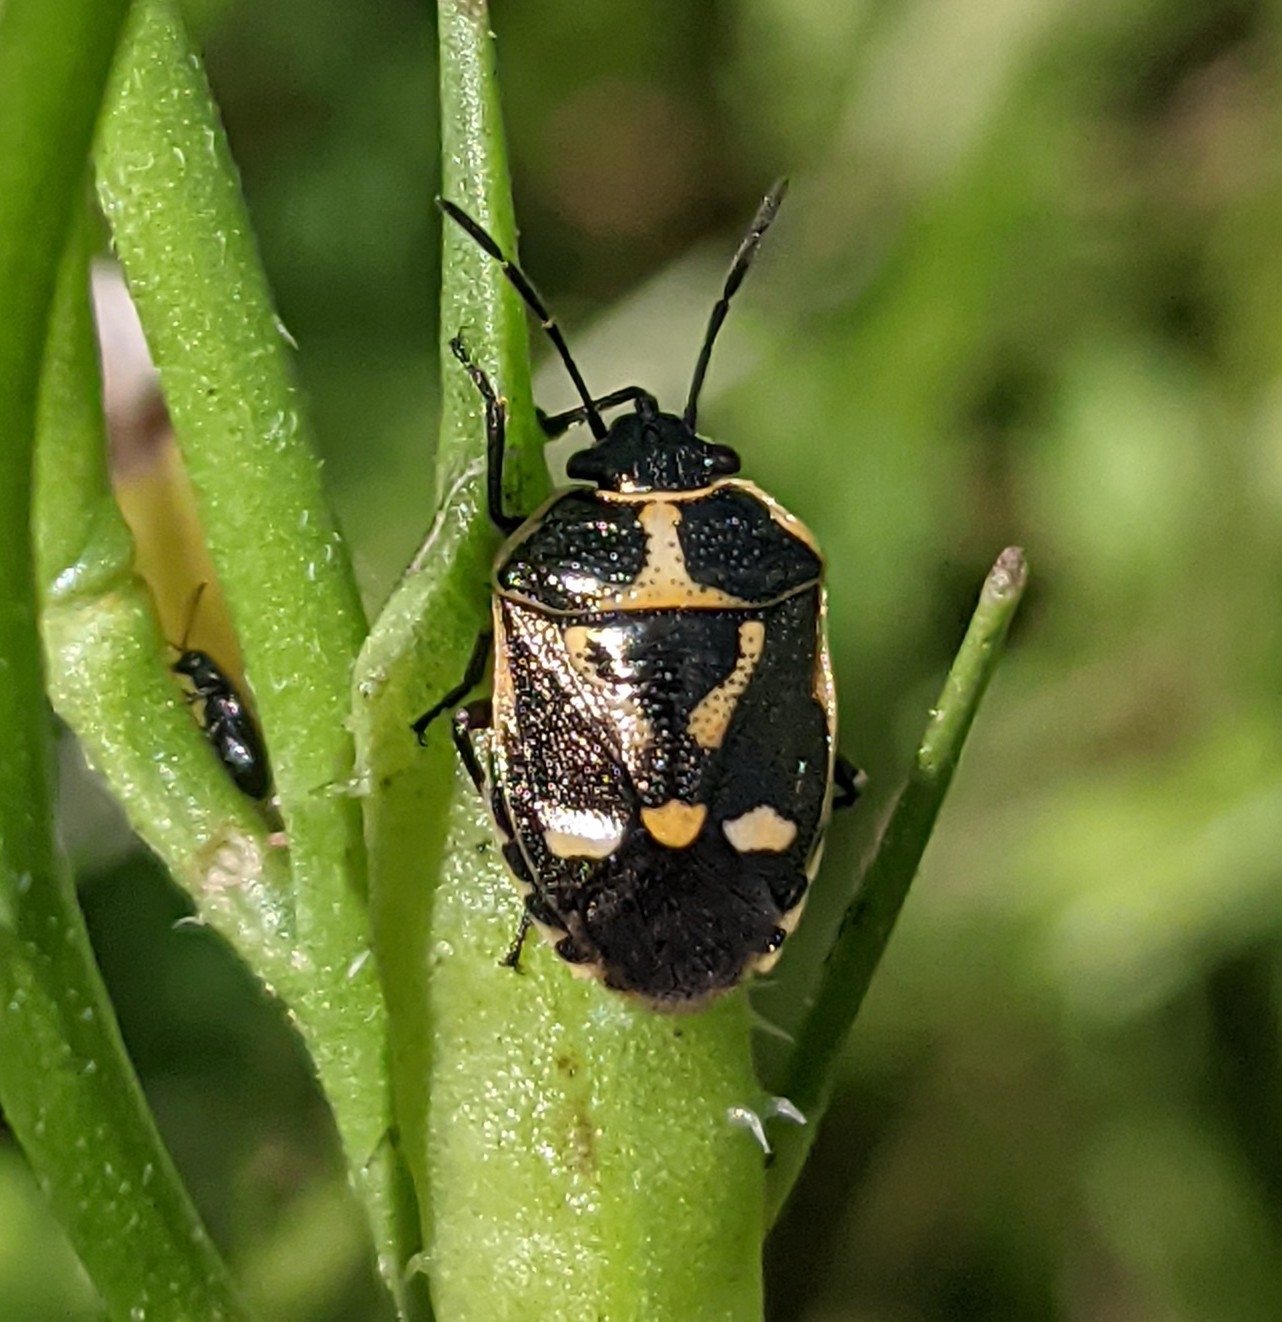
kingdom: Animalia
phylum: Arthropoda
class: Insecta
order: Hemiptera
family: Pentatomidae
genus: Eurydema
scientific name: Eurydema oleracea
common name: Cabbage bug
